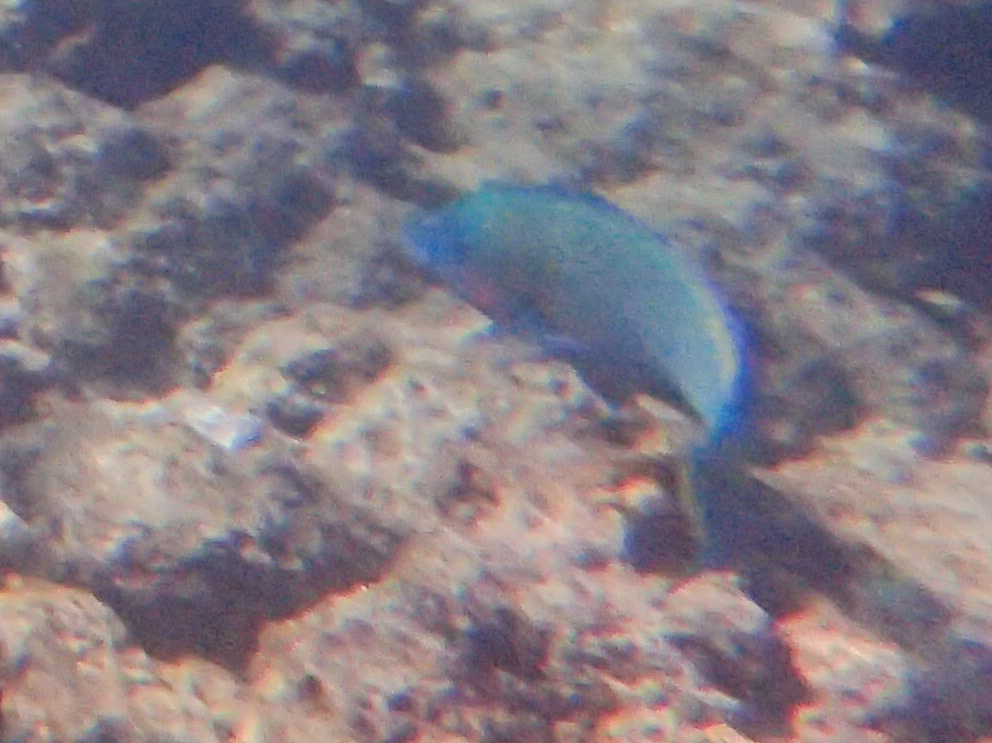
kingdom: Animalia
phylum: Chordata
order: Perciformes
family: Scaridae
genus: Scarus
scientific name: Scarus psittacus
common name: Palenose parrotfish
